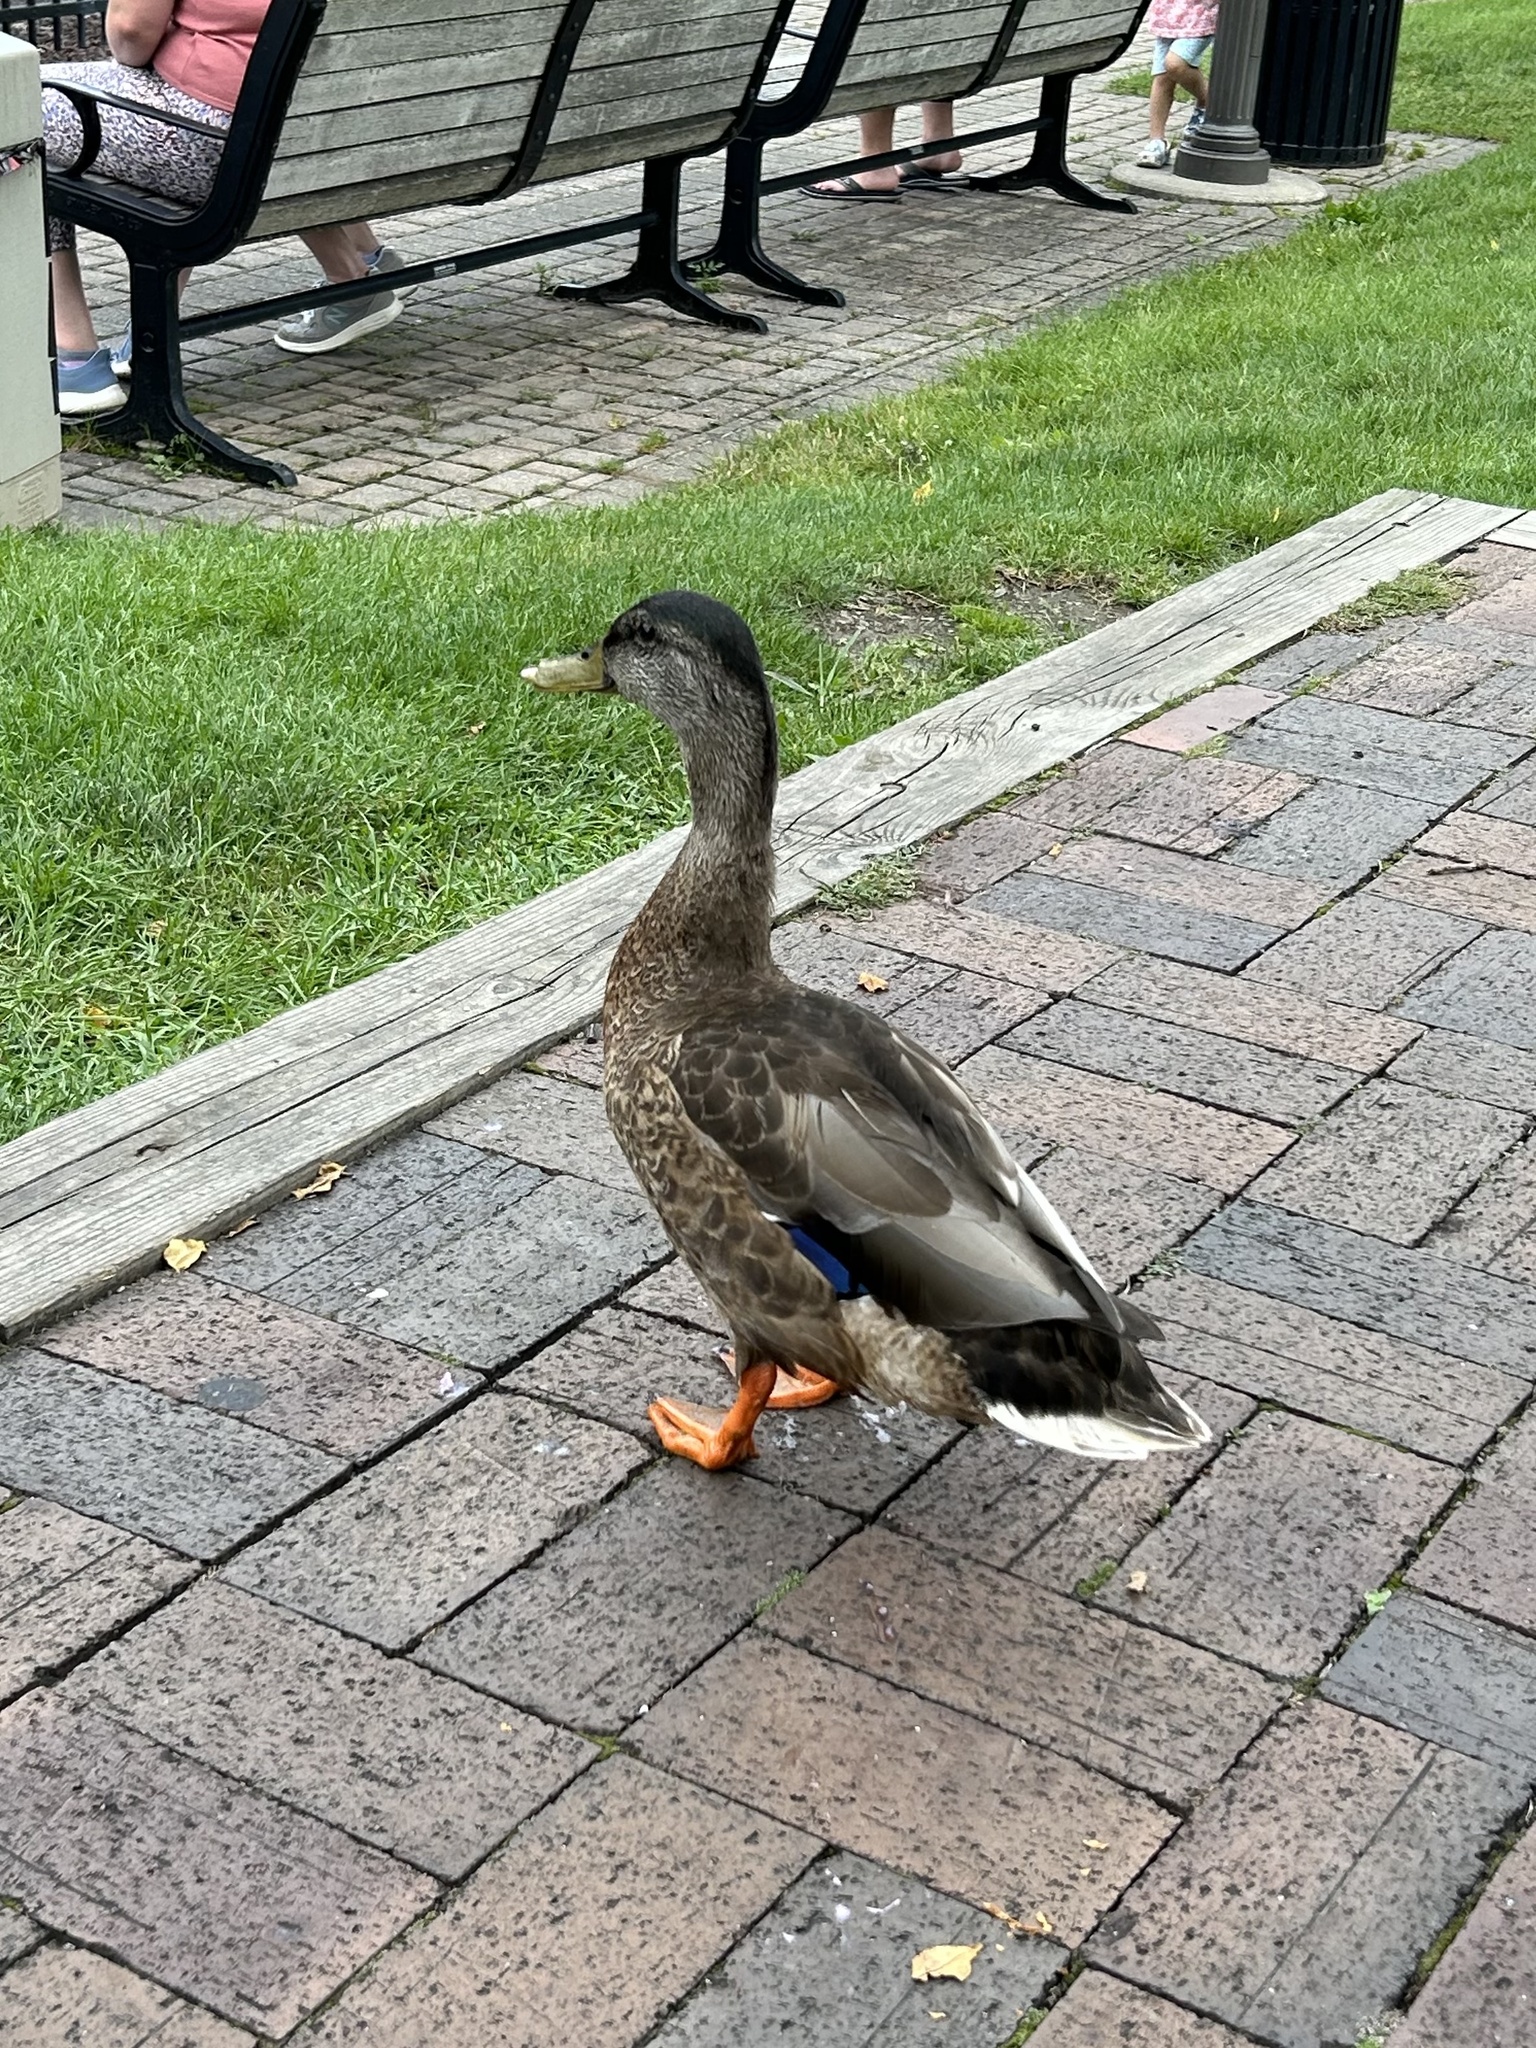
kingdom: Animalia
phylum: Chordata
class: Aves
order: Anseriformes
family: Anatidae
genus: Anas
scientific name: Anas platyrhynchos
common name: Mallard
